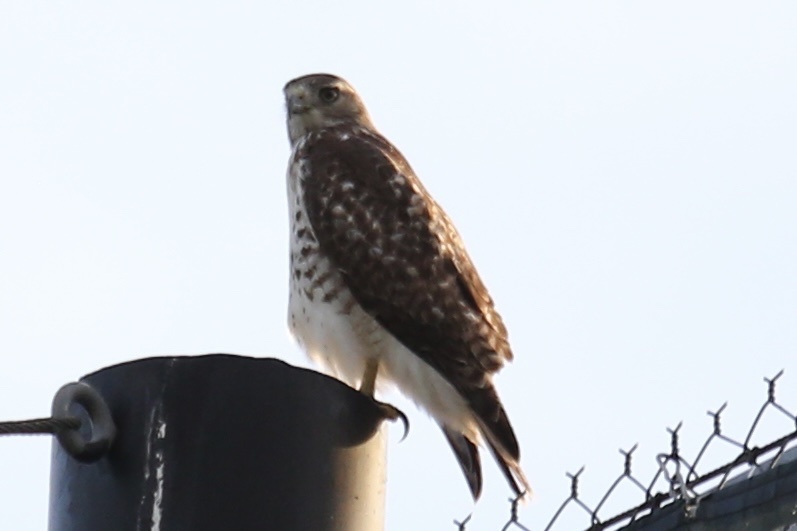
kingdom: Animalia
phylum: Chordata
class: Aves
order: Accipitriformes
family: Accipitridae
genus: Buteo
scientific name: Buteo jamaicensis
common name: Red-tailed hawk
